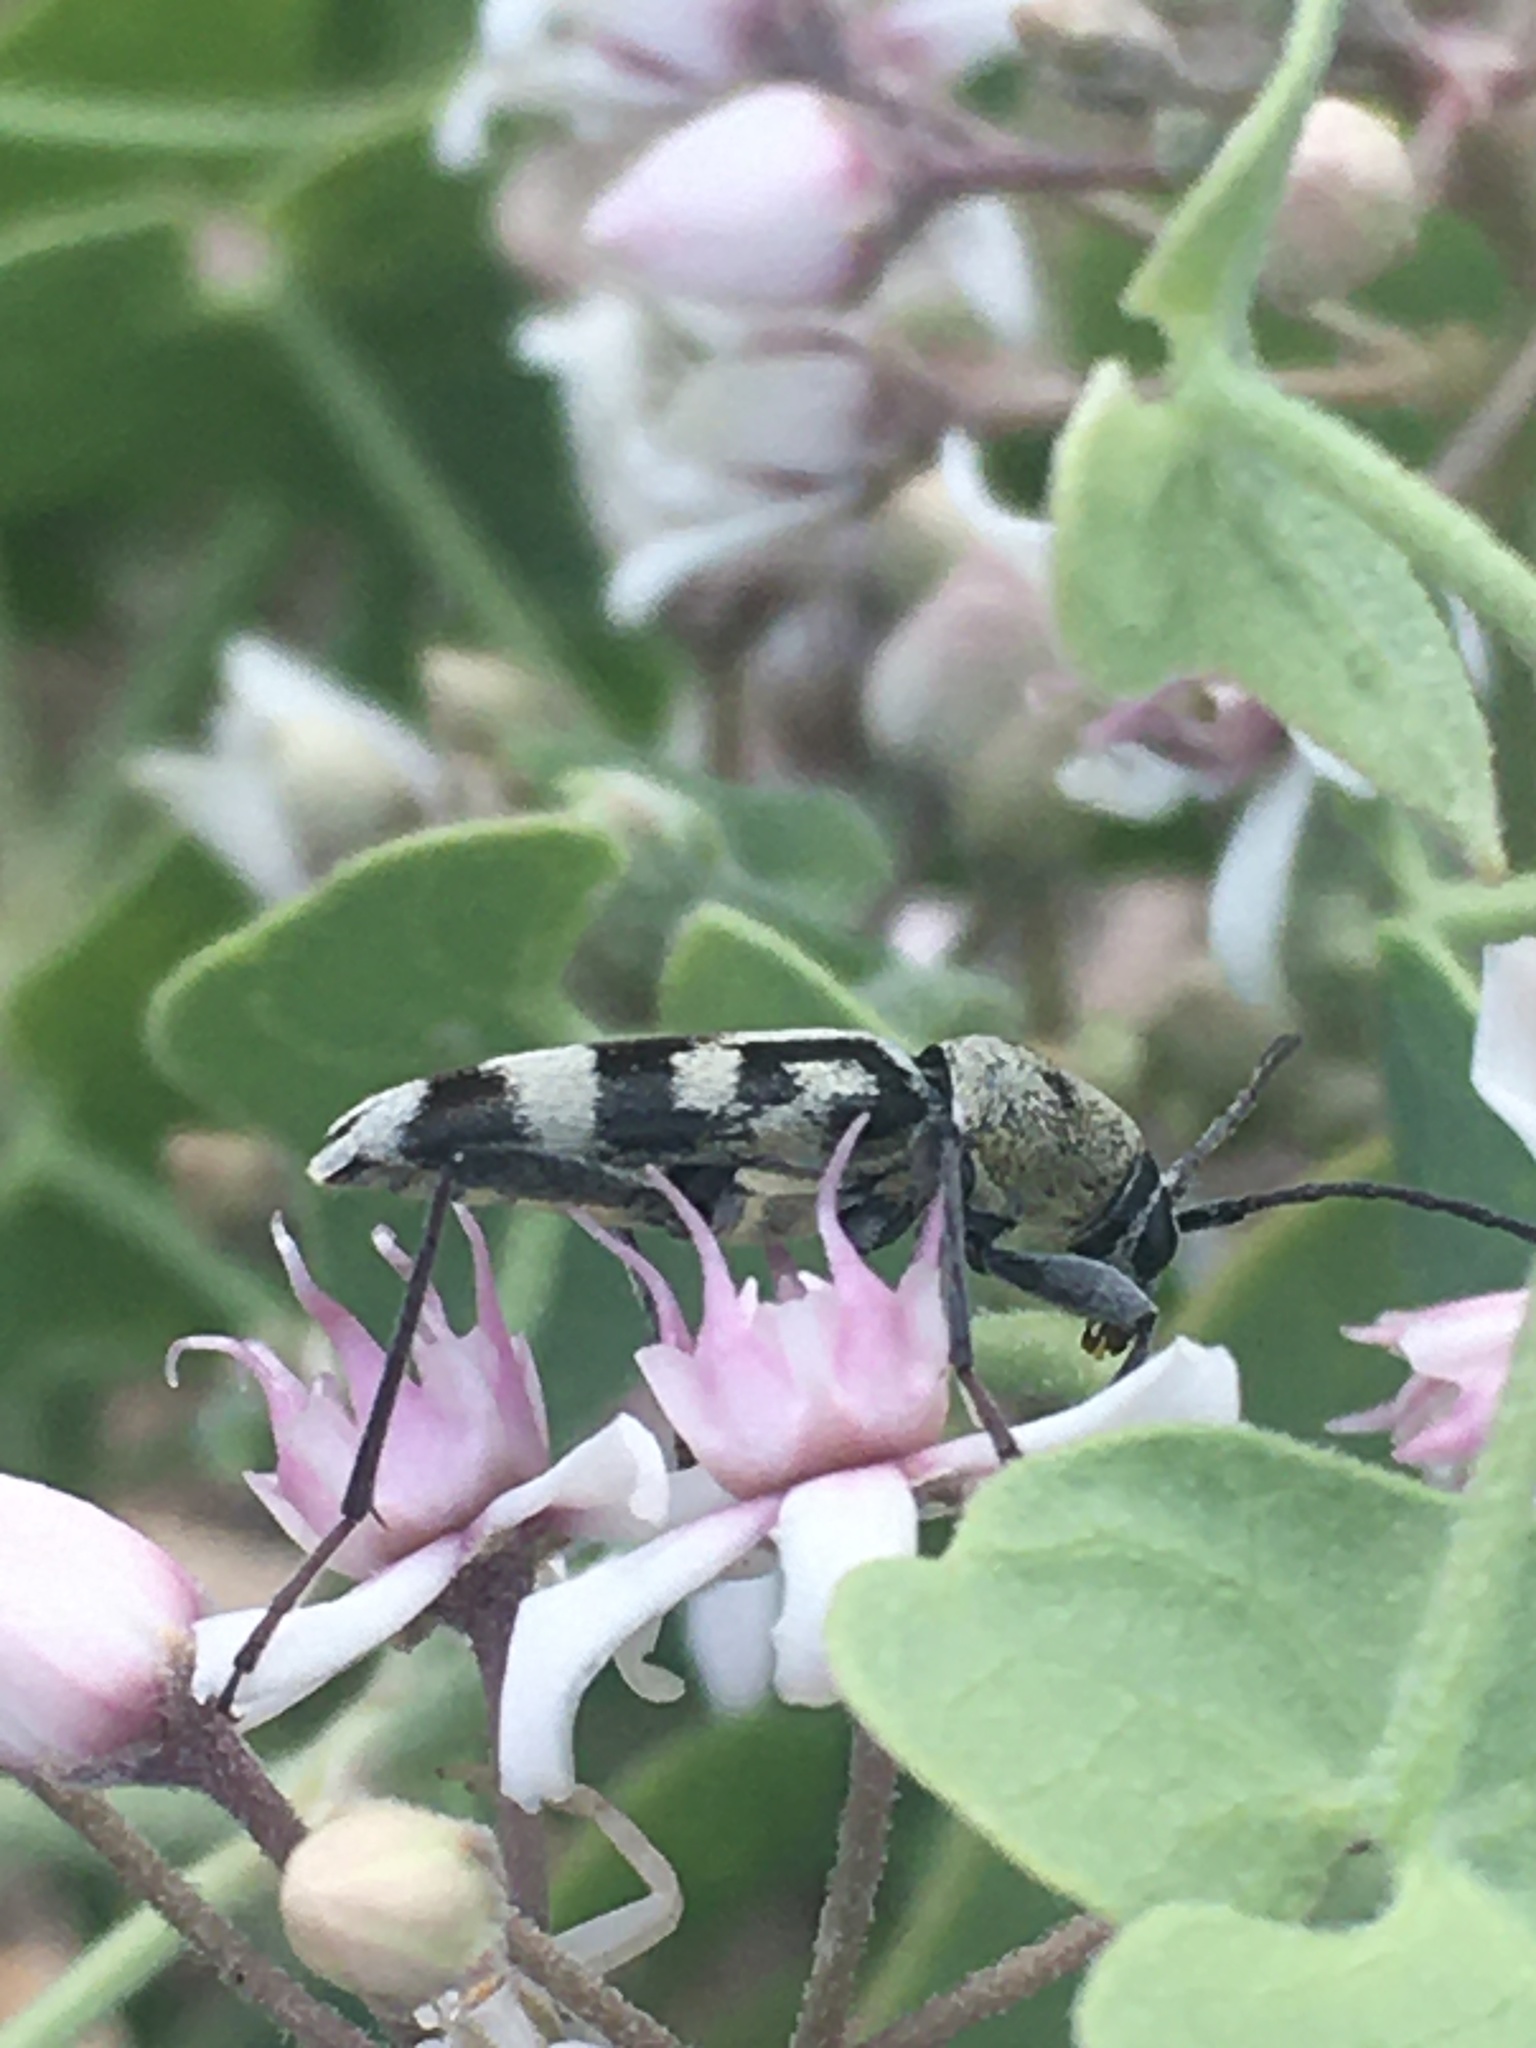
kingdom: Animalia
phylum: Arthropoda
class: Insecta
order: Coleoptera
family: Cerambycidae
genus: Chlorophorus
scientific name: Chlorophorus varius
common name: Grape wood borer
